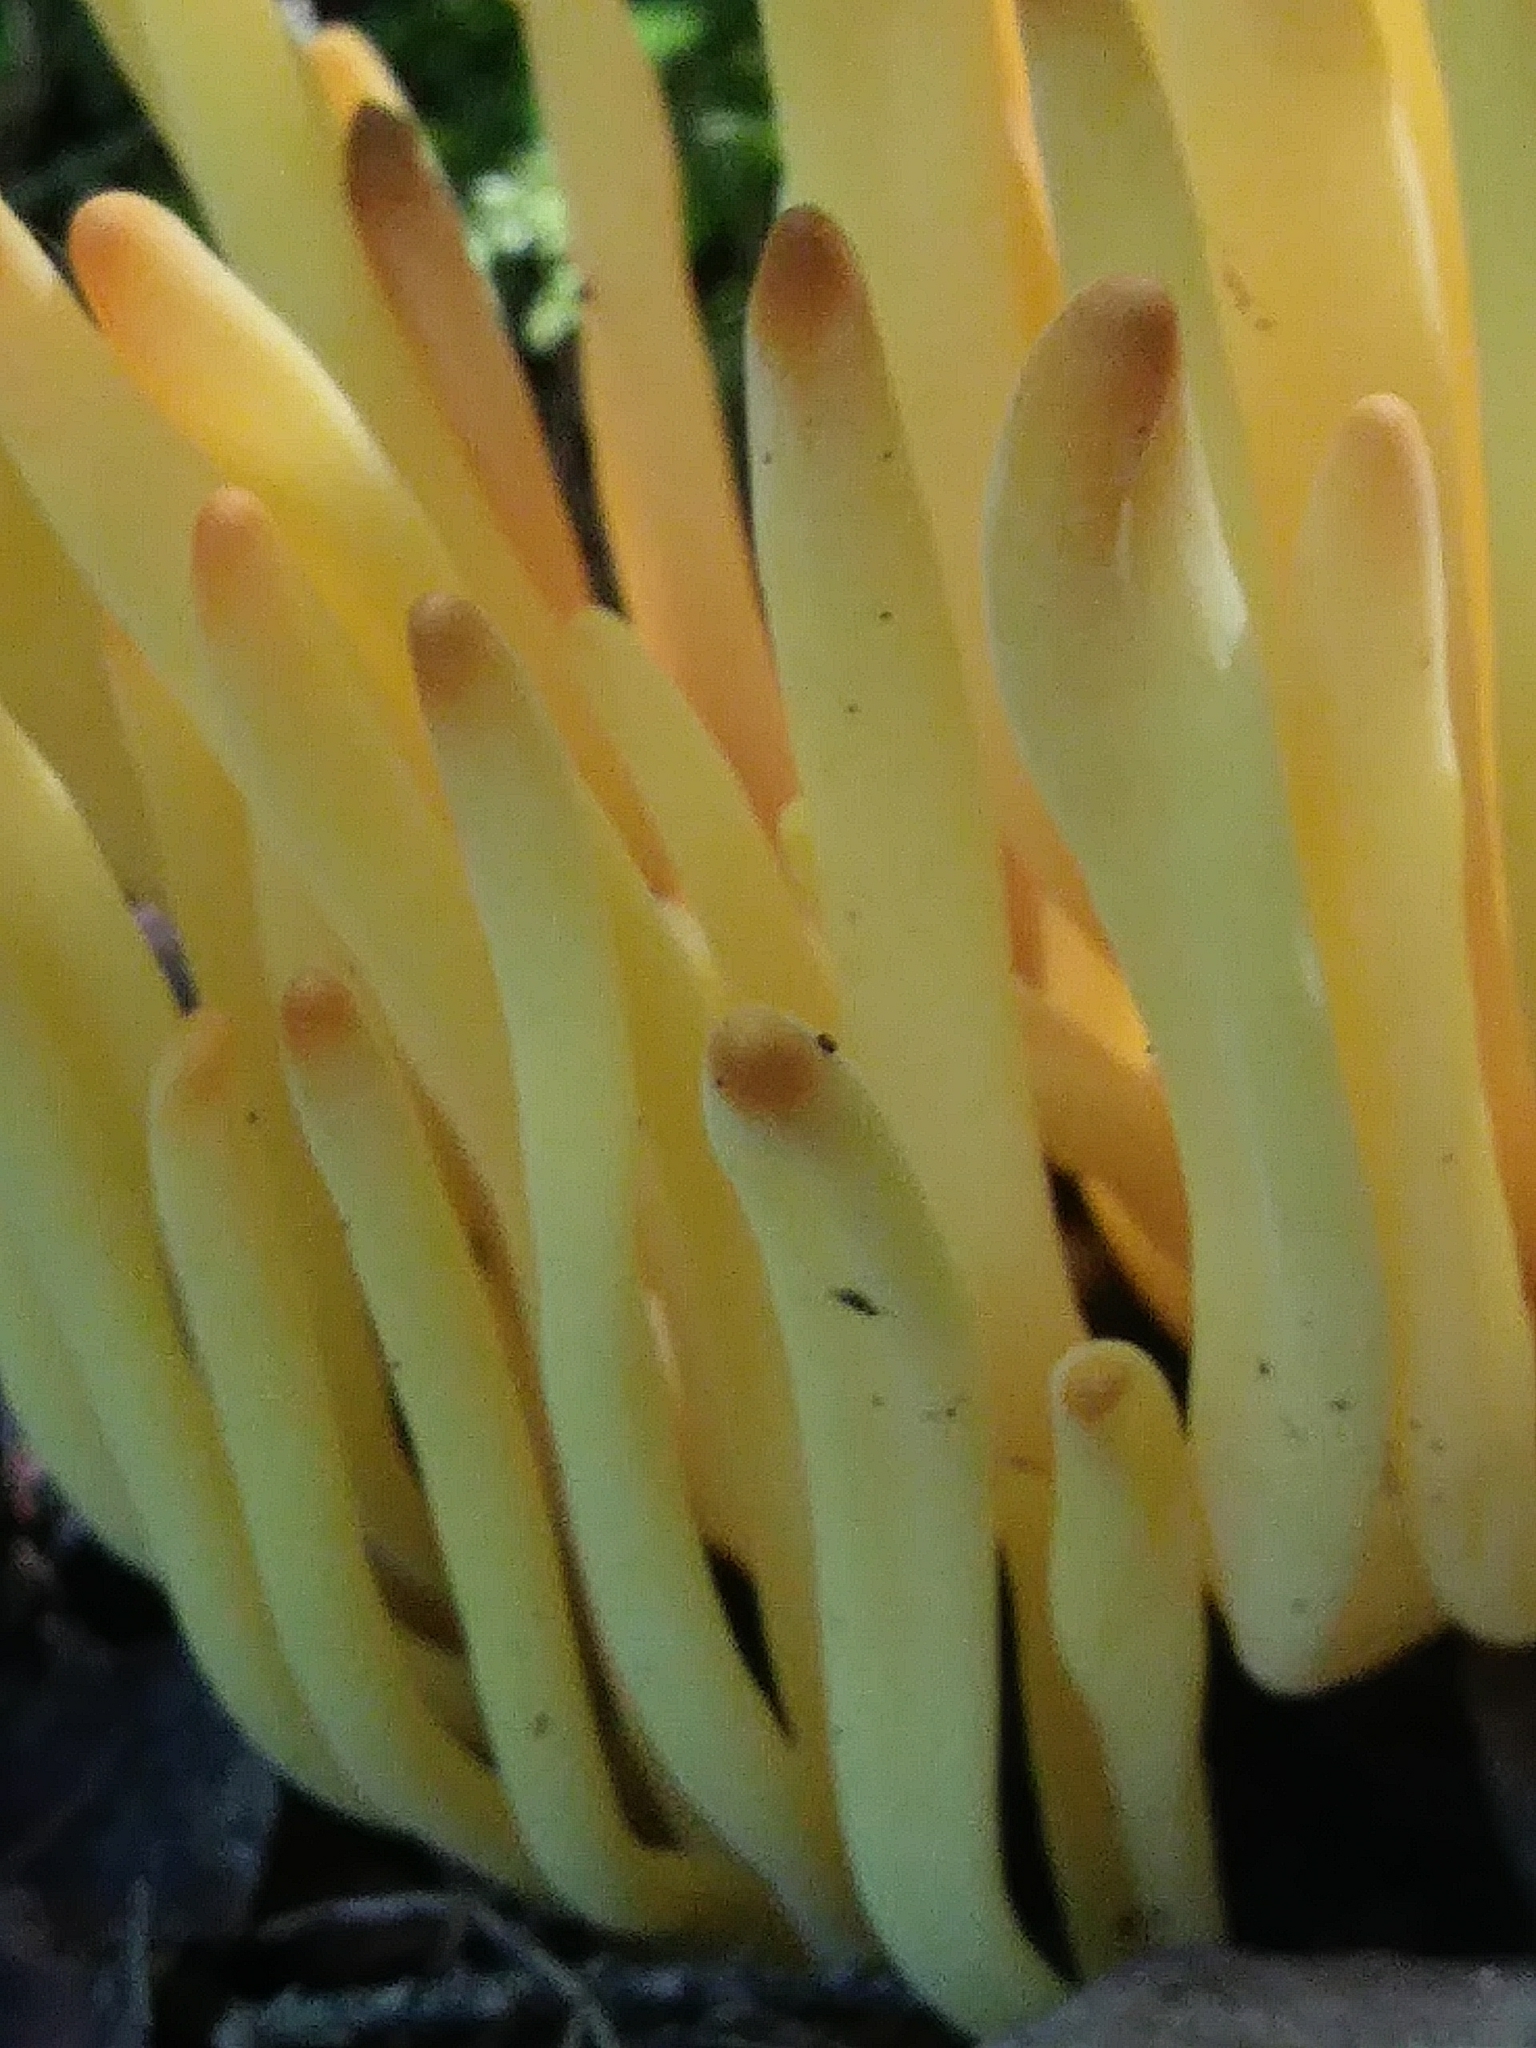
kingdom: Fungi
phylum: Basidiomycota
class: Agaricomycetes
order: Agaricales
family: Clavariaceae
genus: Clavulinopsis
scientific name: Clavulinopsis fusiformis
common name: Golden spindles
